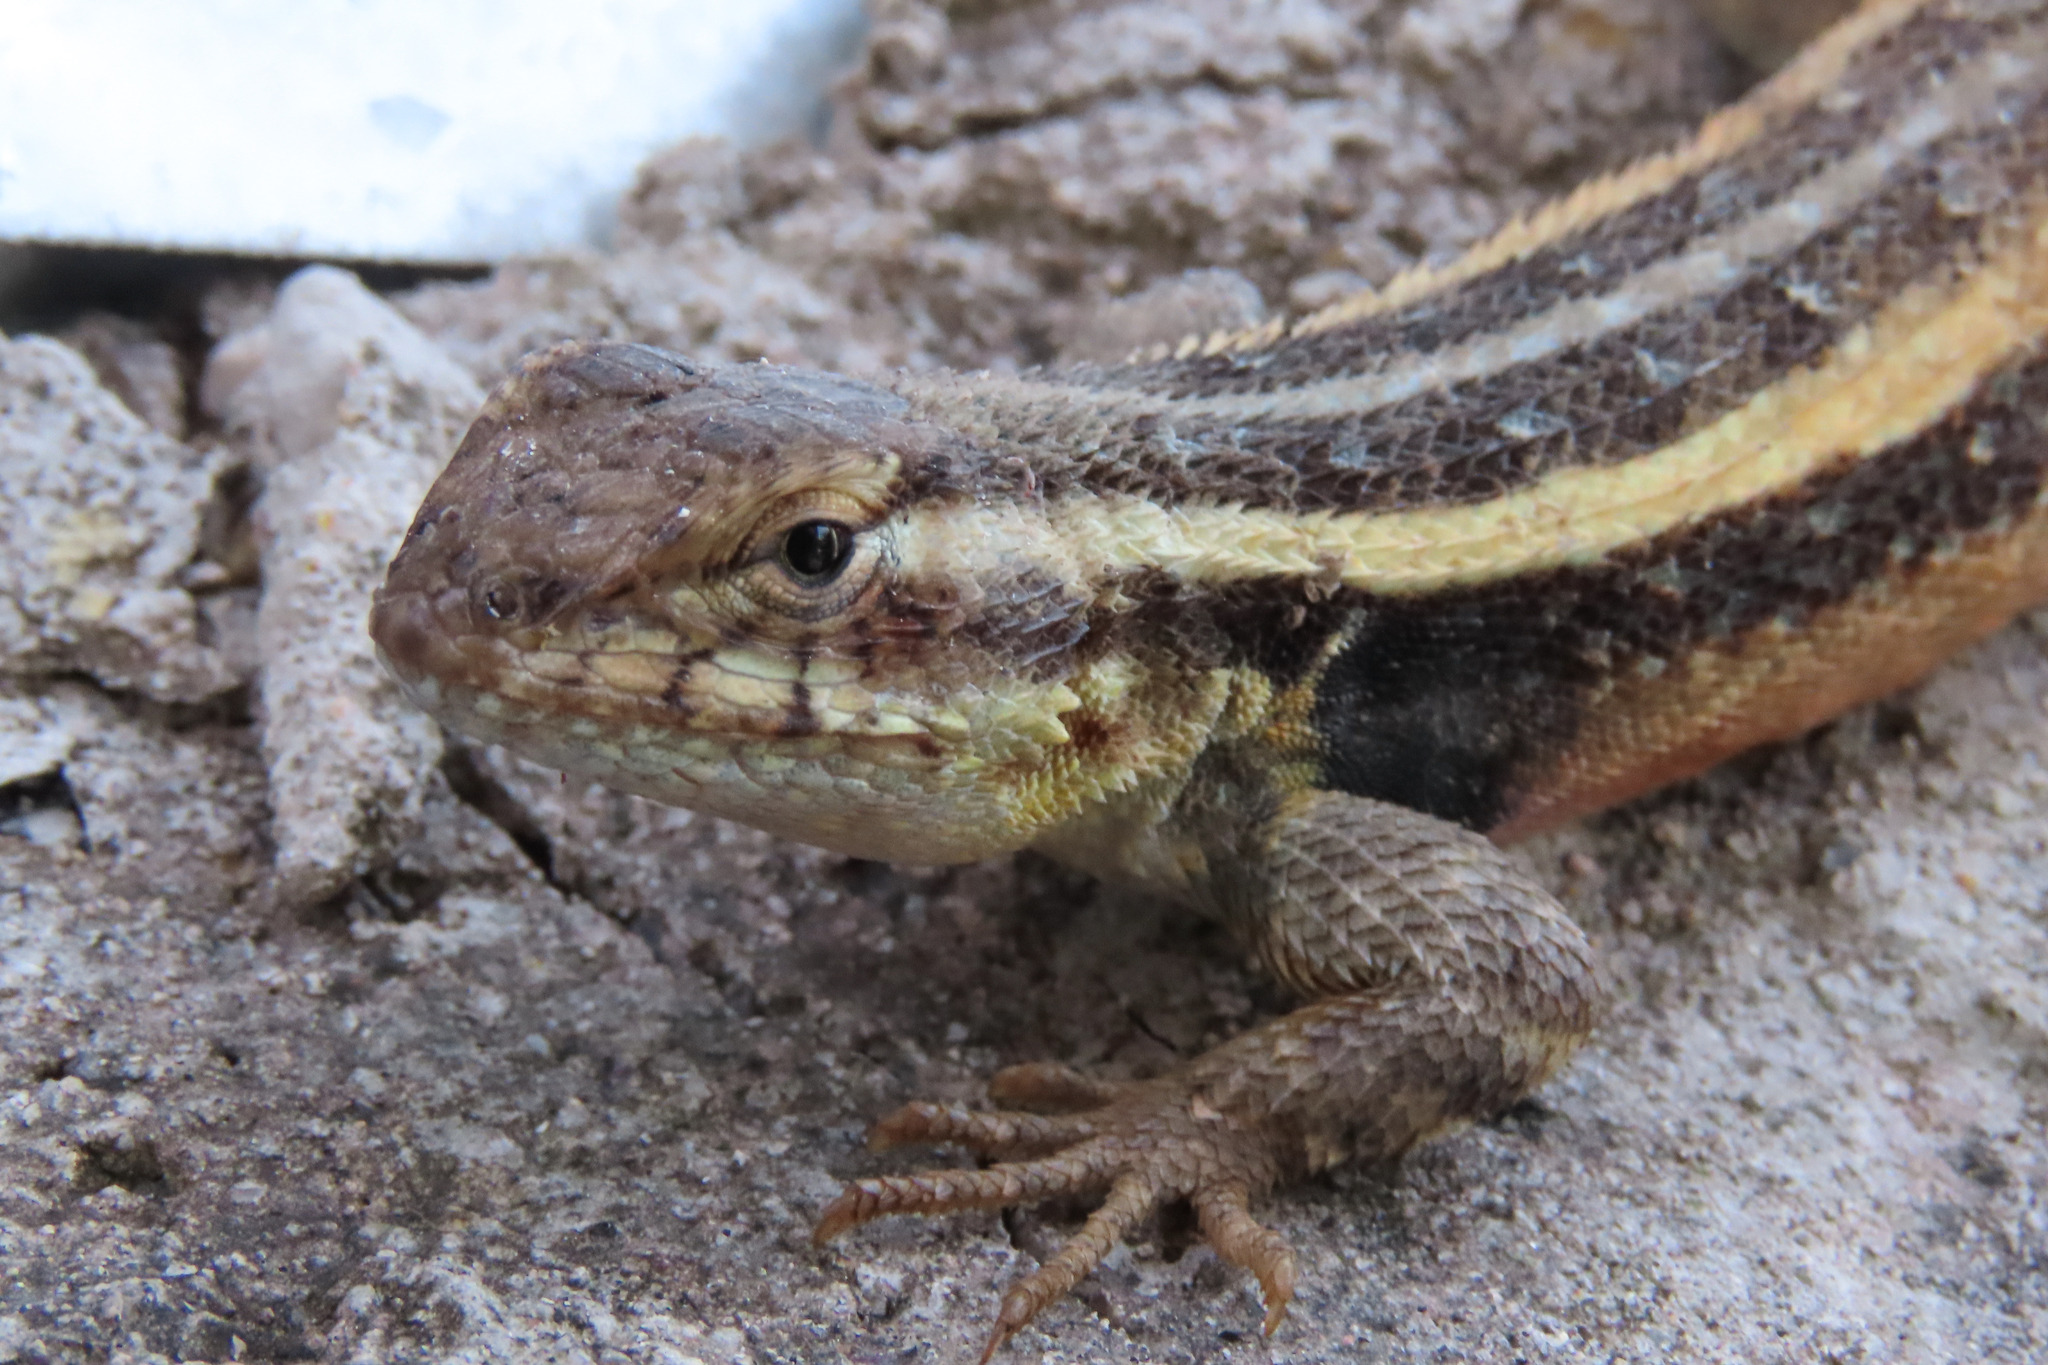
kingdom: Animalia
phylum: Chordata
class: Squamata
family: Phrynosomatidae
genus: Sceloporus
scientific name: Sceloporus variabilis
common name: Rosebelly lizard
